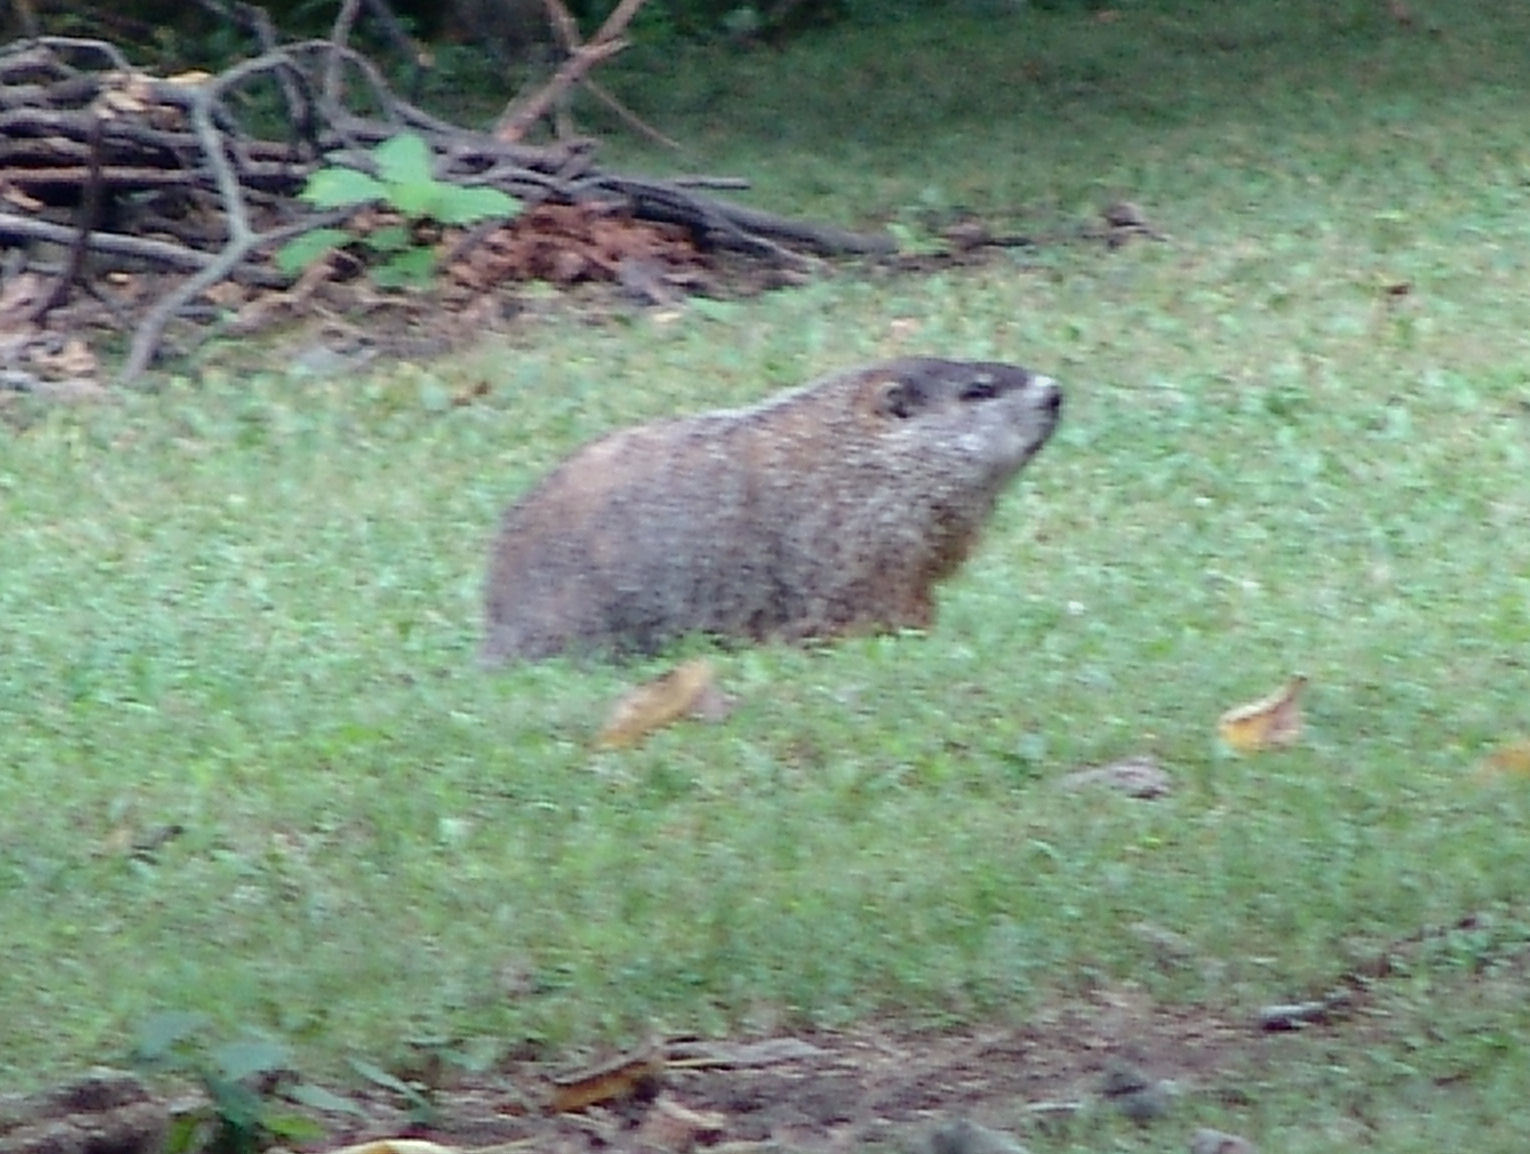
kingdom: Animalia
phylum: Chordata
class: Mammalia
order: Rodentia
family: Sciuridae
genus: Marmota
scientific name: Marmota monax
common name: Groundhog
